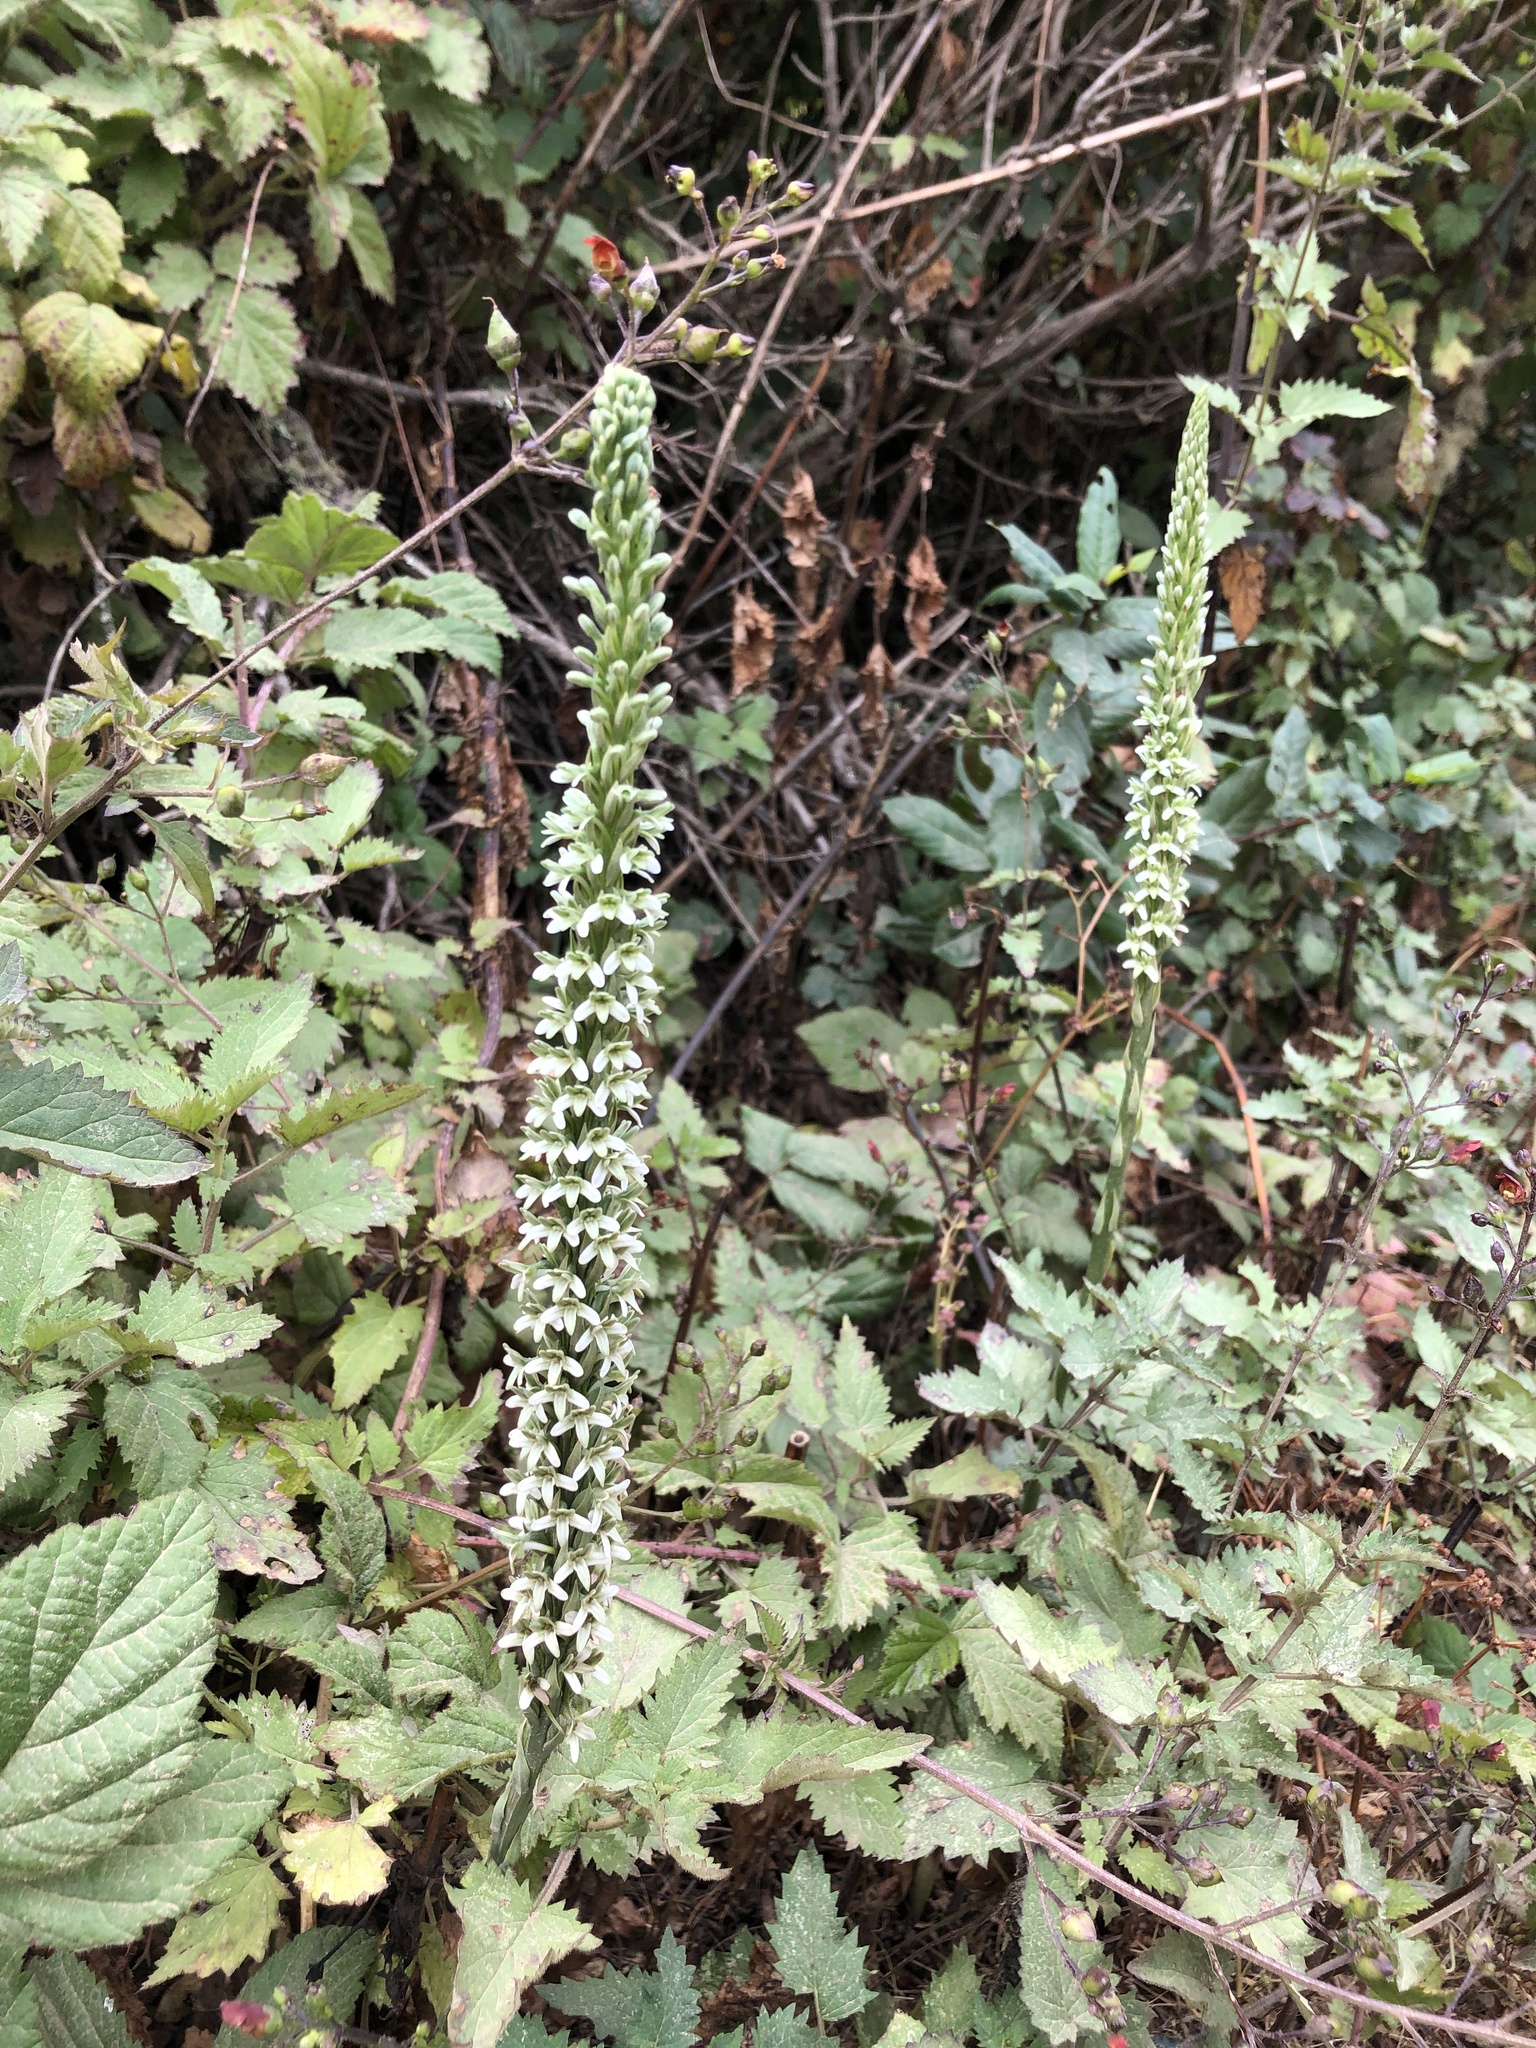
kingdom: Plantae
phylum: Tracheophyta
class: Liliopsida
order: Asparagales
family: Orchidaceae
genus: Platanthera
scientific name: Platanthera elegans
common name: Coast piperia
